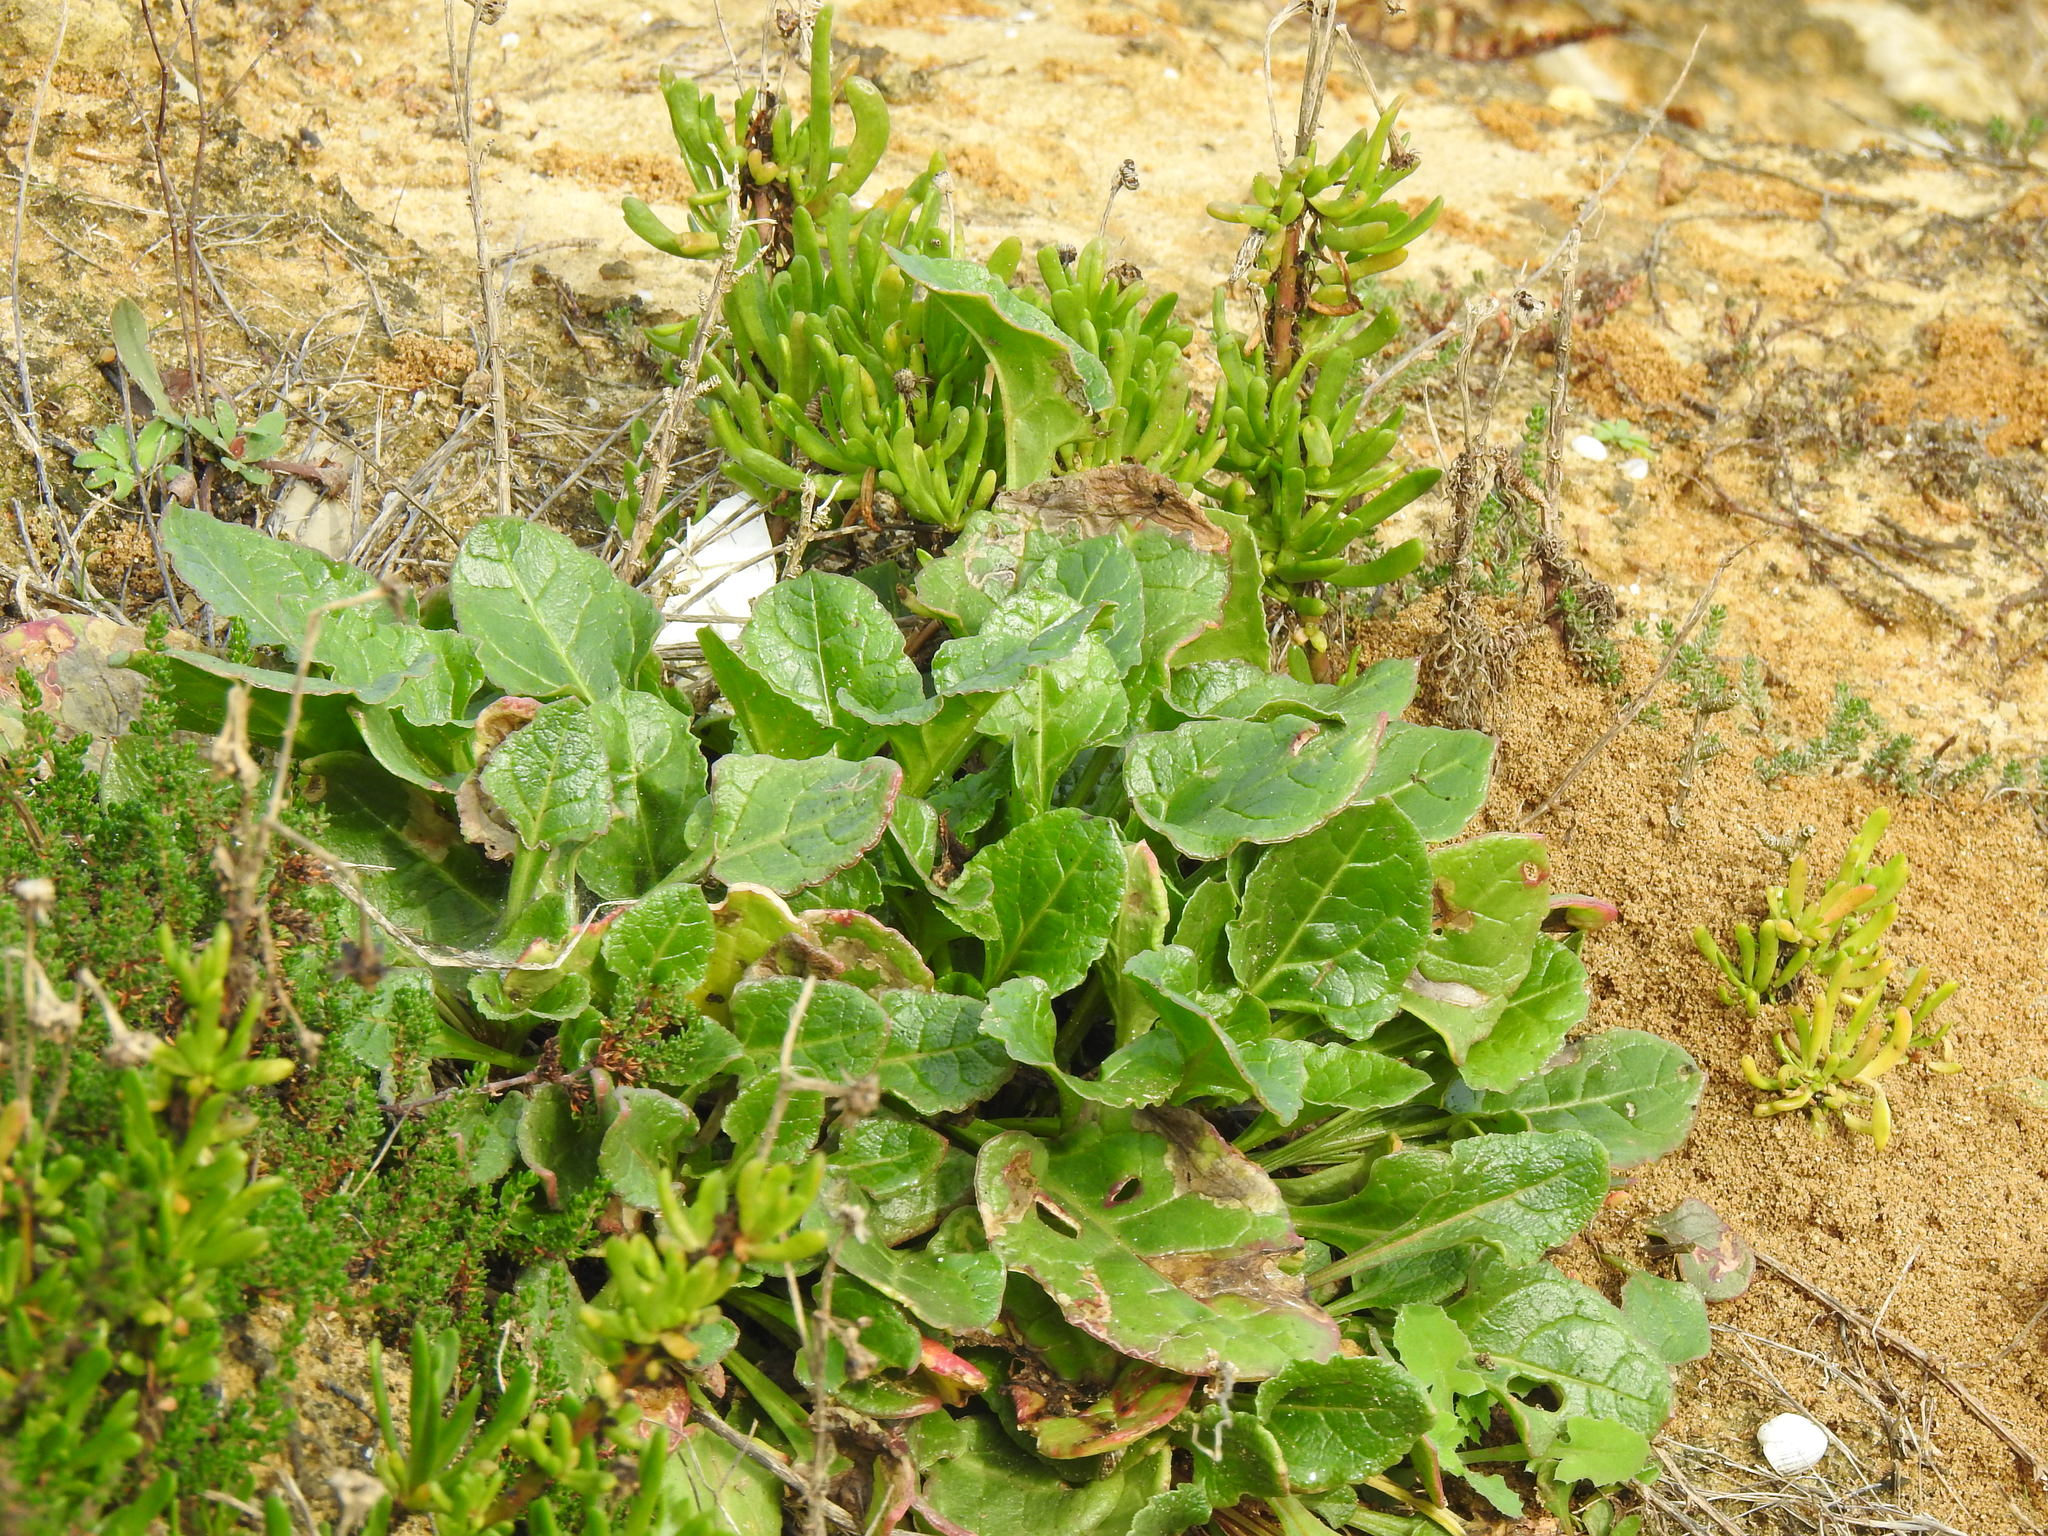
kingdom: Plantae
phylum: Tracheophyta
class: Magnoliopsida
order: Caryophyllales
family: Amaranthaceae
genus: Beta
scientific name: Beta vulgaris
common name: Beet
